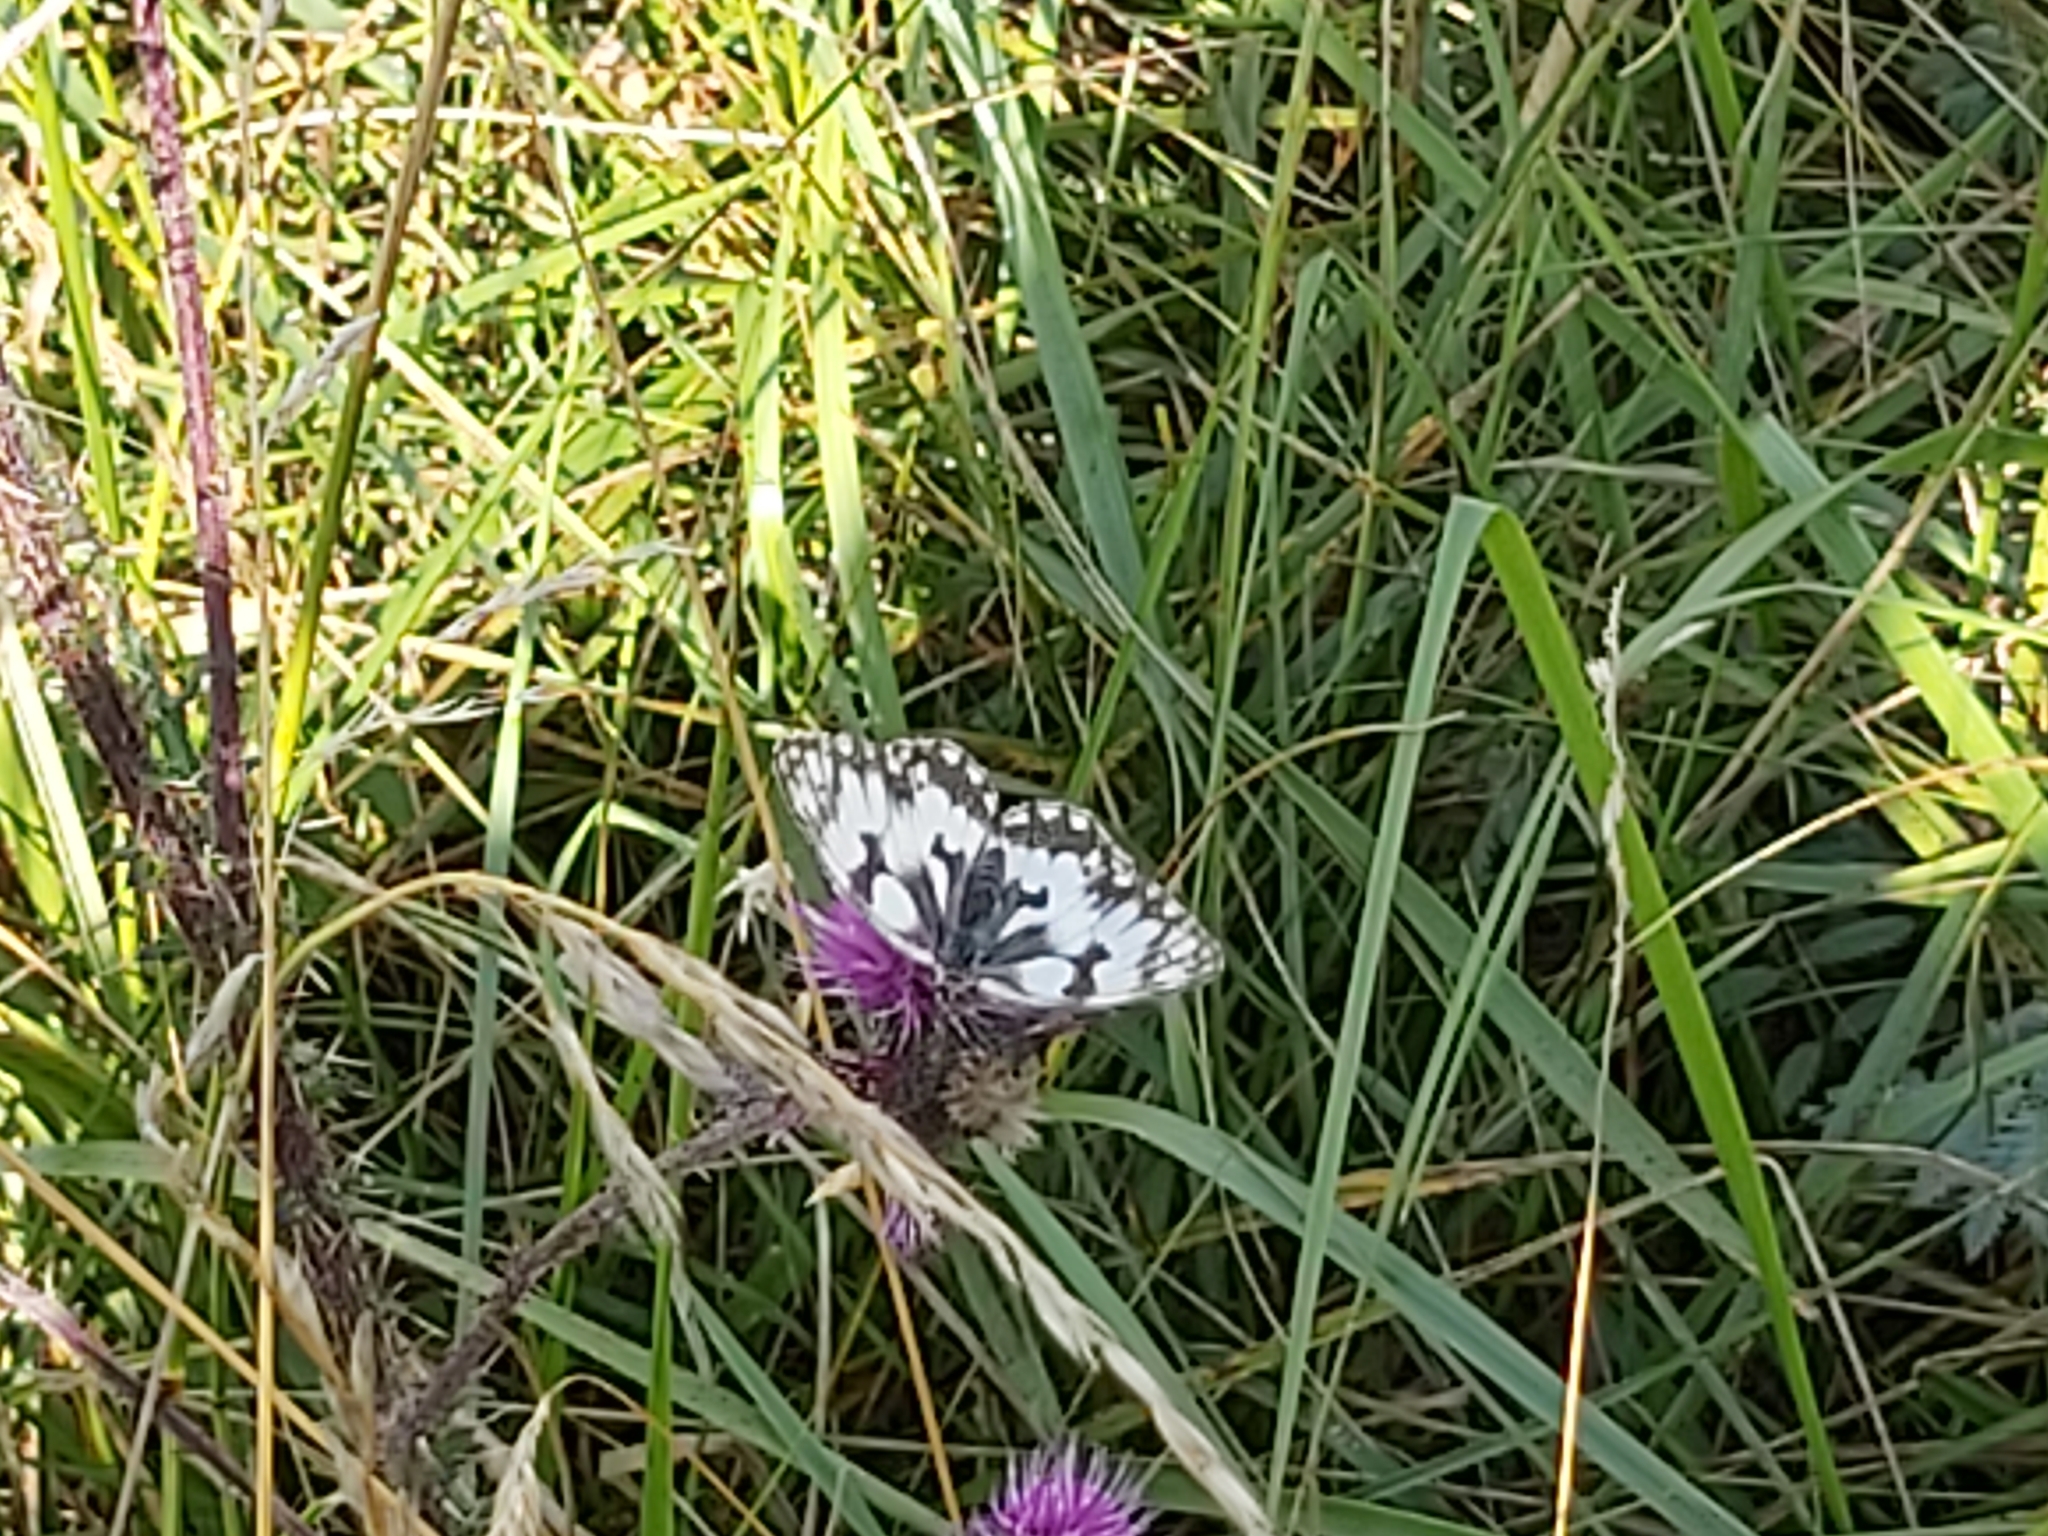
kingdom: Animalia
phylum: Arthropoda
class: Insecta
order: Lepidoptera
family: Nymphalidae
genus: Melanargia
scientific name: Melanargia galathea
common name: Marbled white
